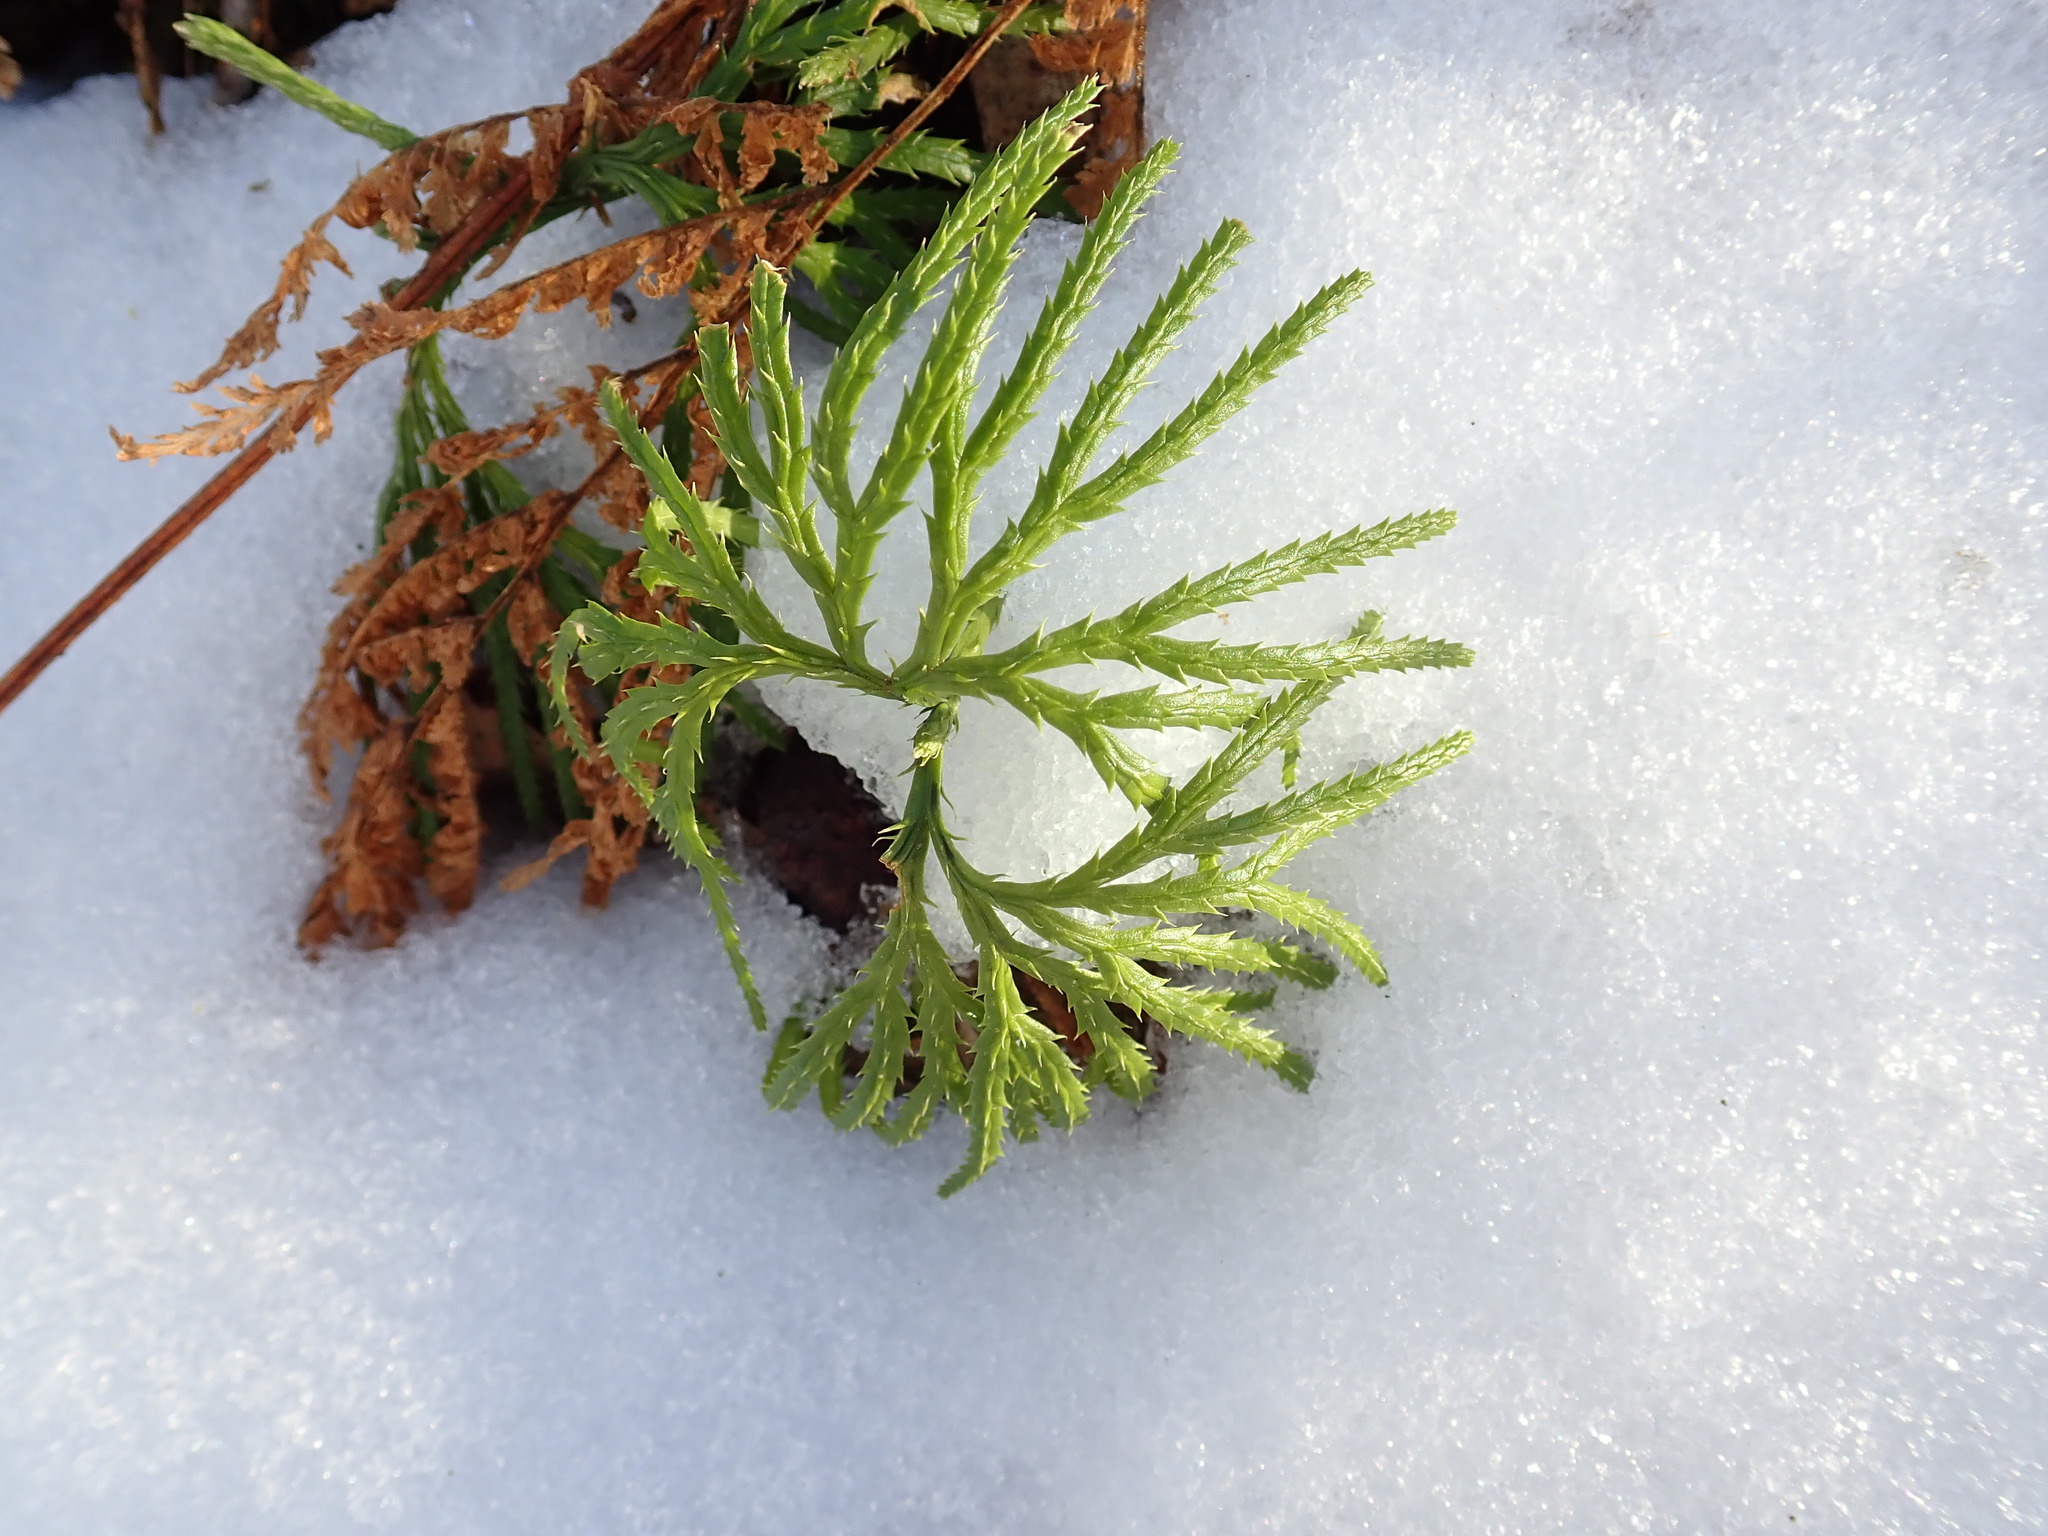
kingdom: Plantae
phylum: Tracheophyta
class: Lycopodiopsida
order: Lycopodiales
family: Lycopodiaceae
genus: Diphasiastrum
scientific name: Diphasiastrum digitatum
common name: Southern running-pine
